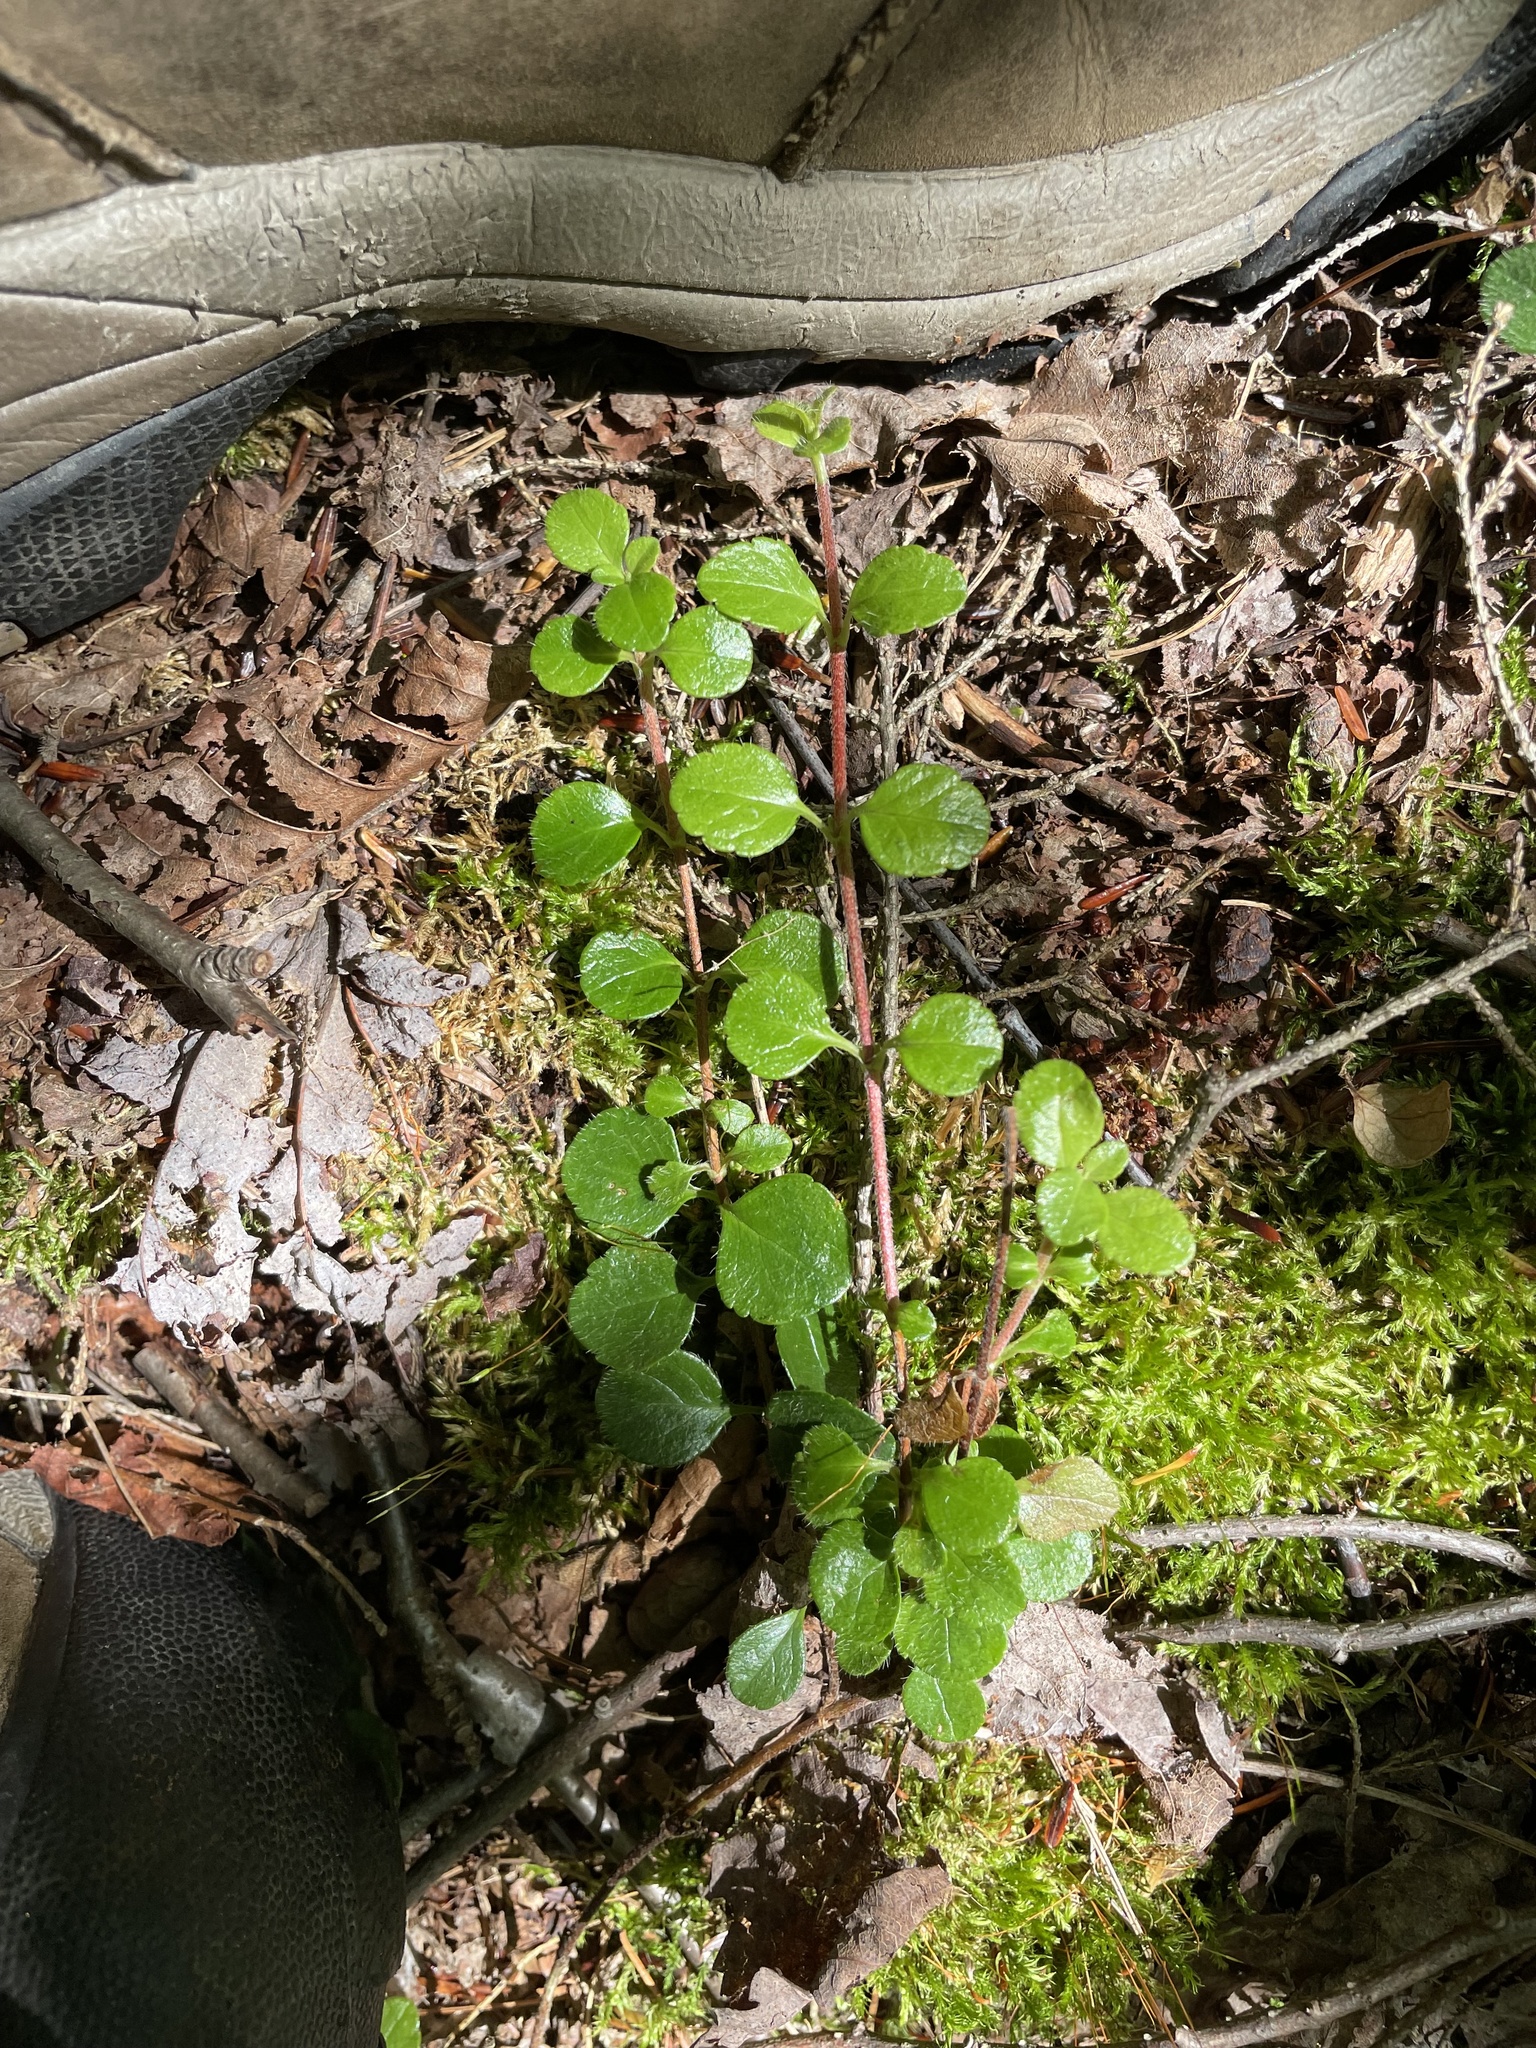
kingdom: Plantae
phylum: Tracheophyta
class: Magnoliopsida
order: Dipsacales
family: Caprifoliaceae
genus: Linnaea
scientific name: Linnaea borealis
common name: Twinflower
